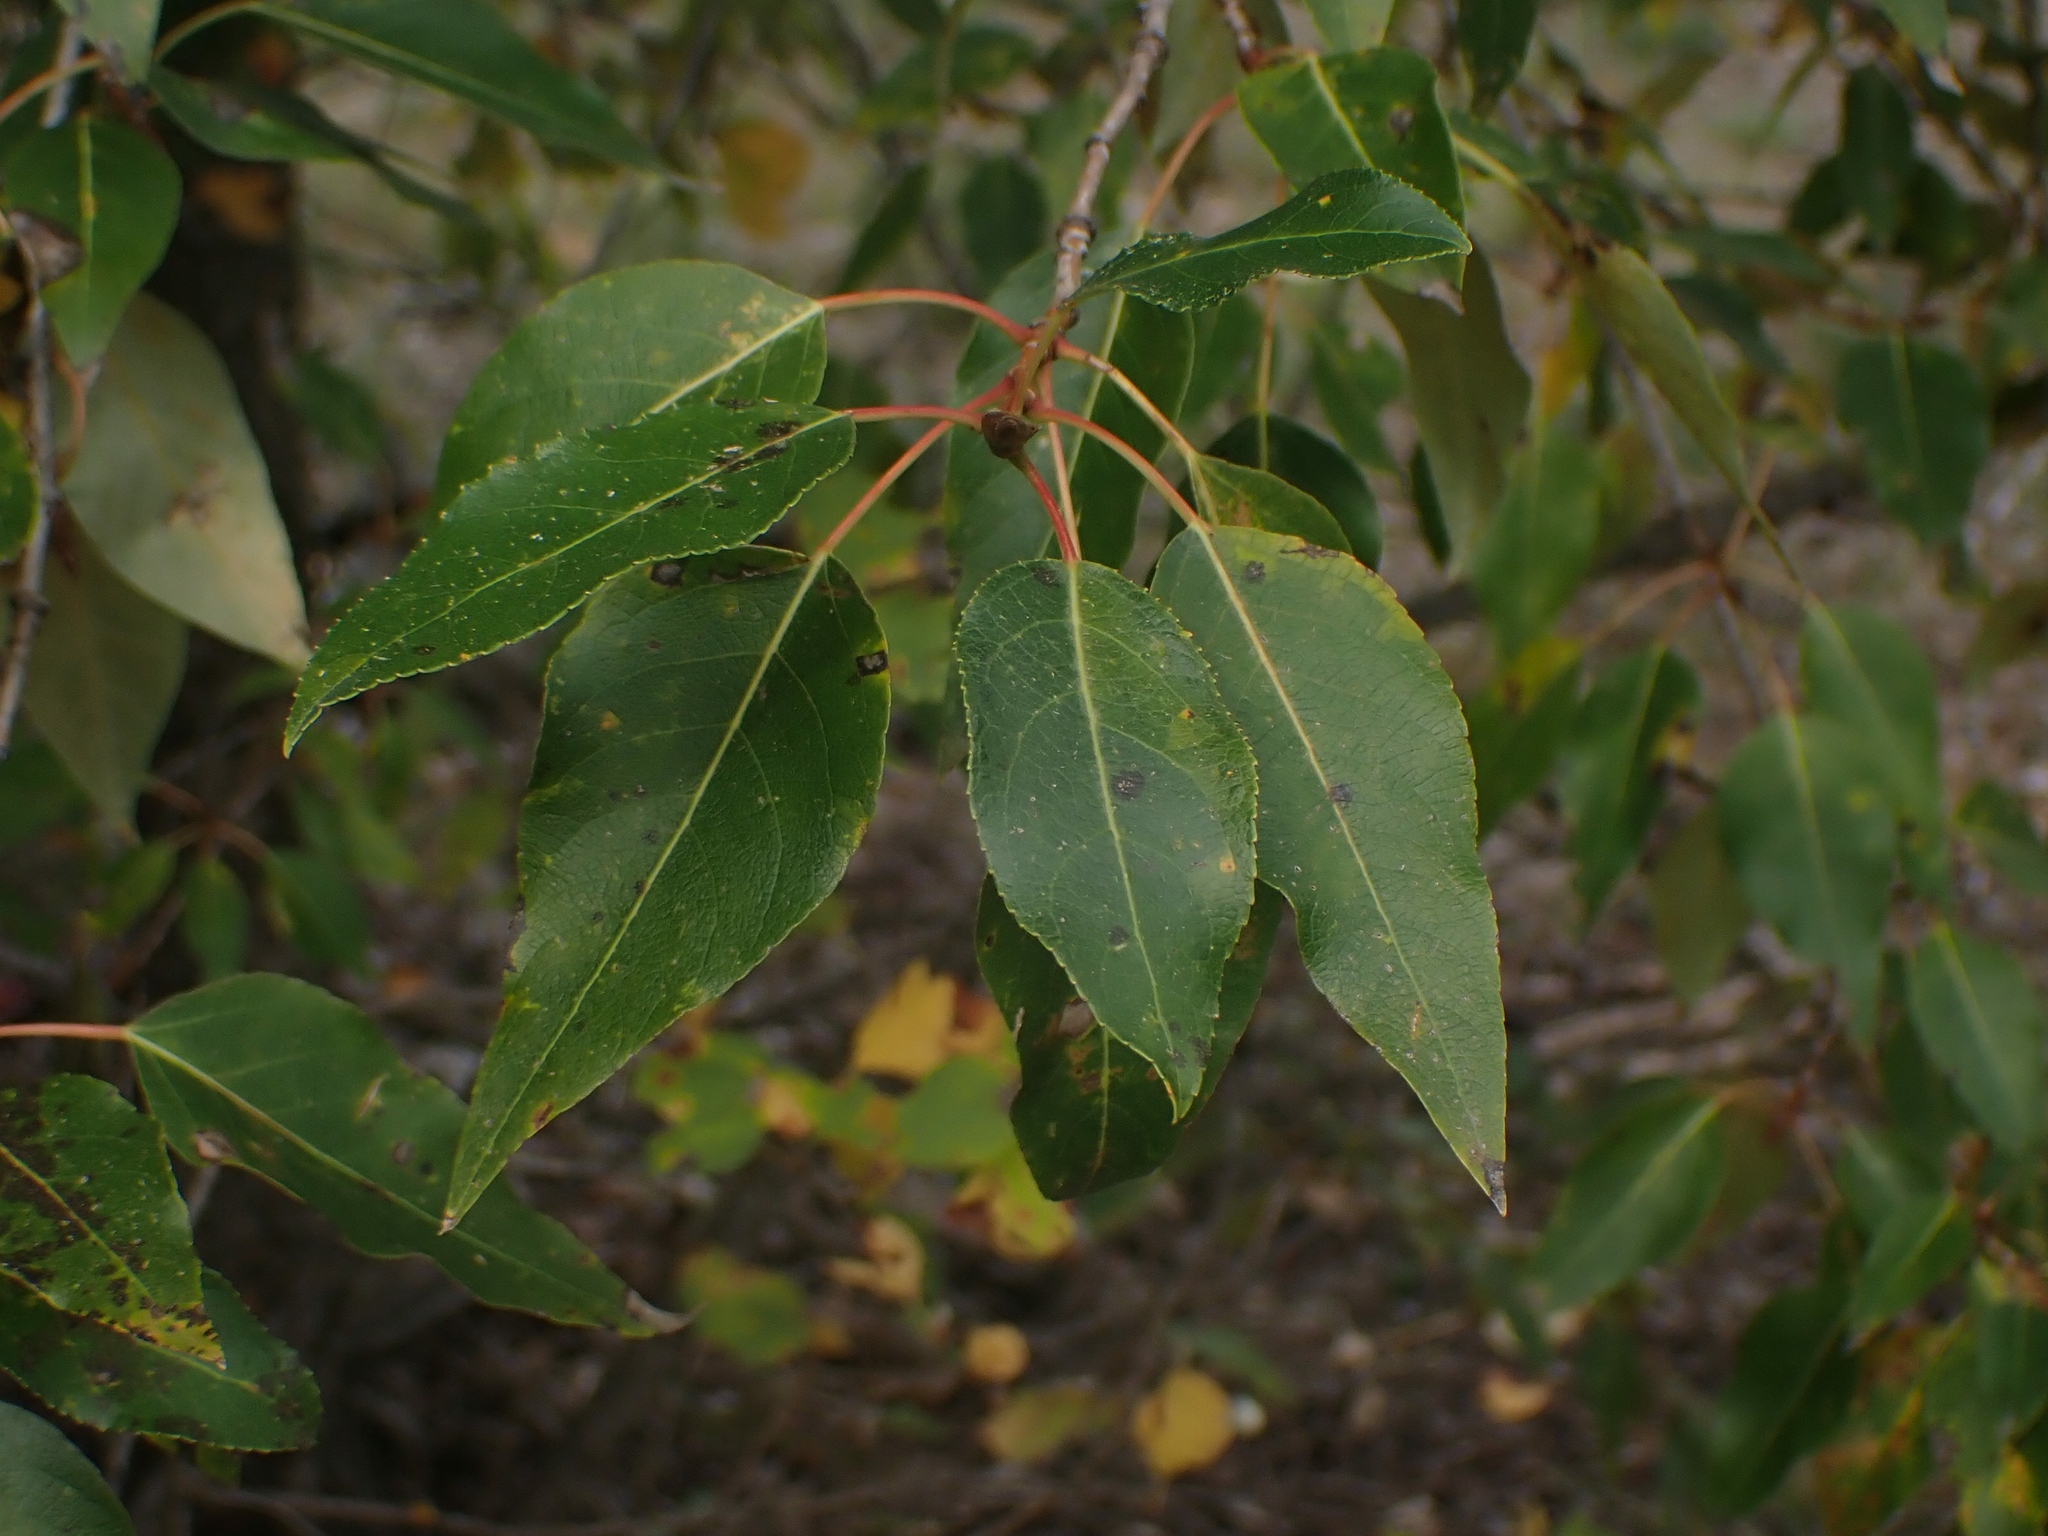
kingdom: Plantae
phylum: Tracheophyta
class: Magnoliopsida
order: Malpighiales
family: Salicaceae
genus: Populus
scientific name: Populus trichocarpa
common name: Black cottonwood
